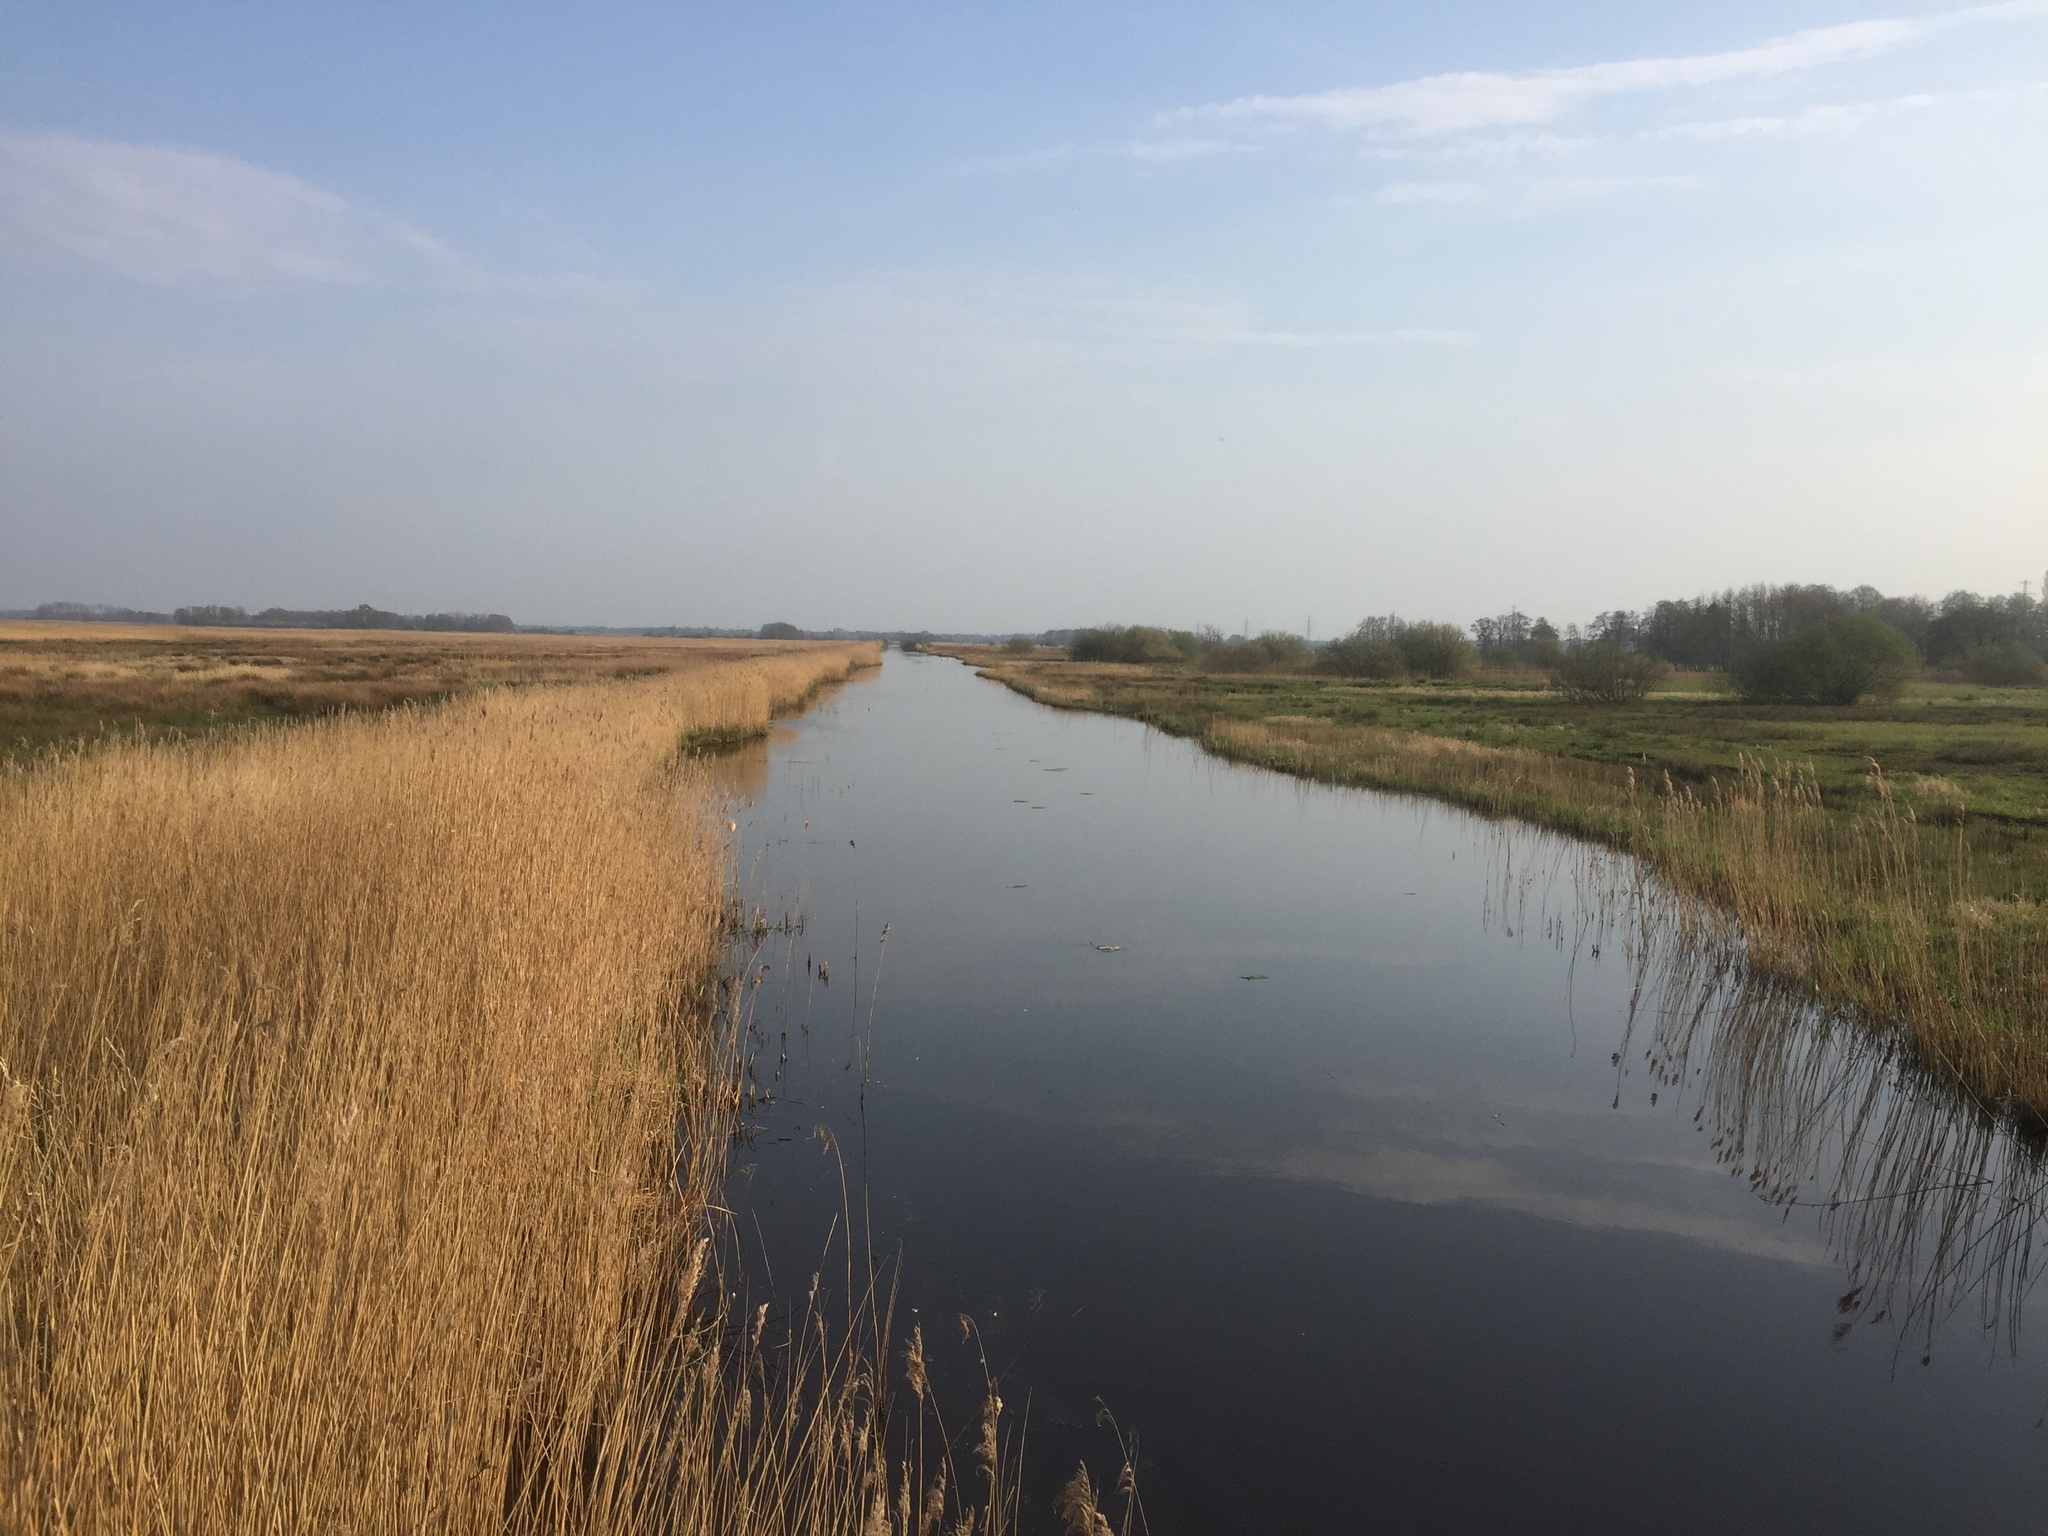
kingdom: Plantae
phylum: Tracheophyta
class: Liliopsida
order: Poales
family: Poaceae
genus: Phragmites
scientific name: Phragmites australis
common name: Common reed
